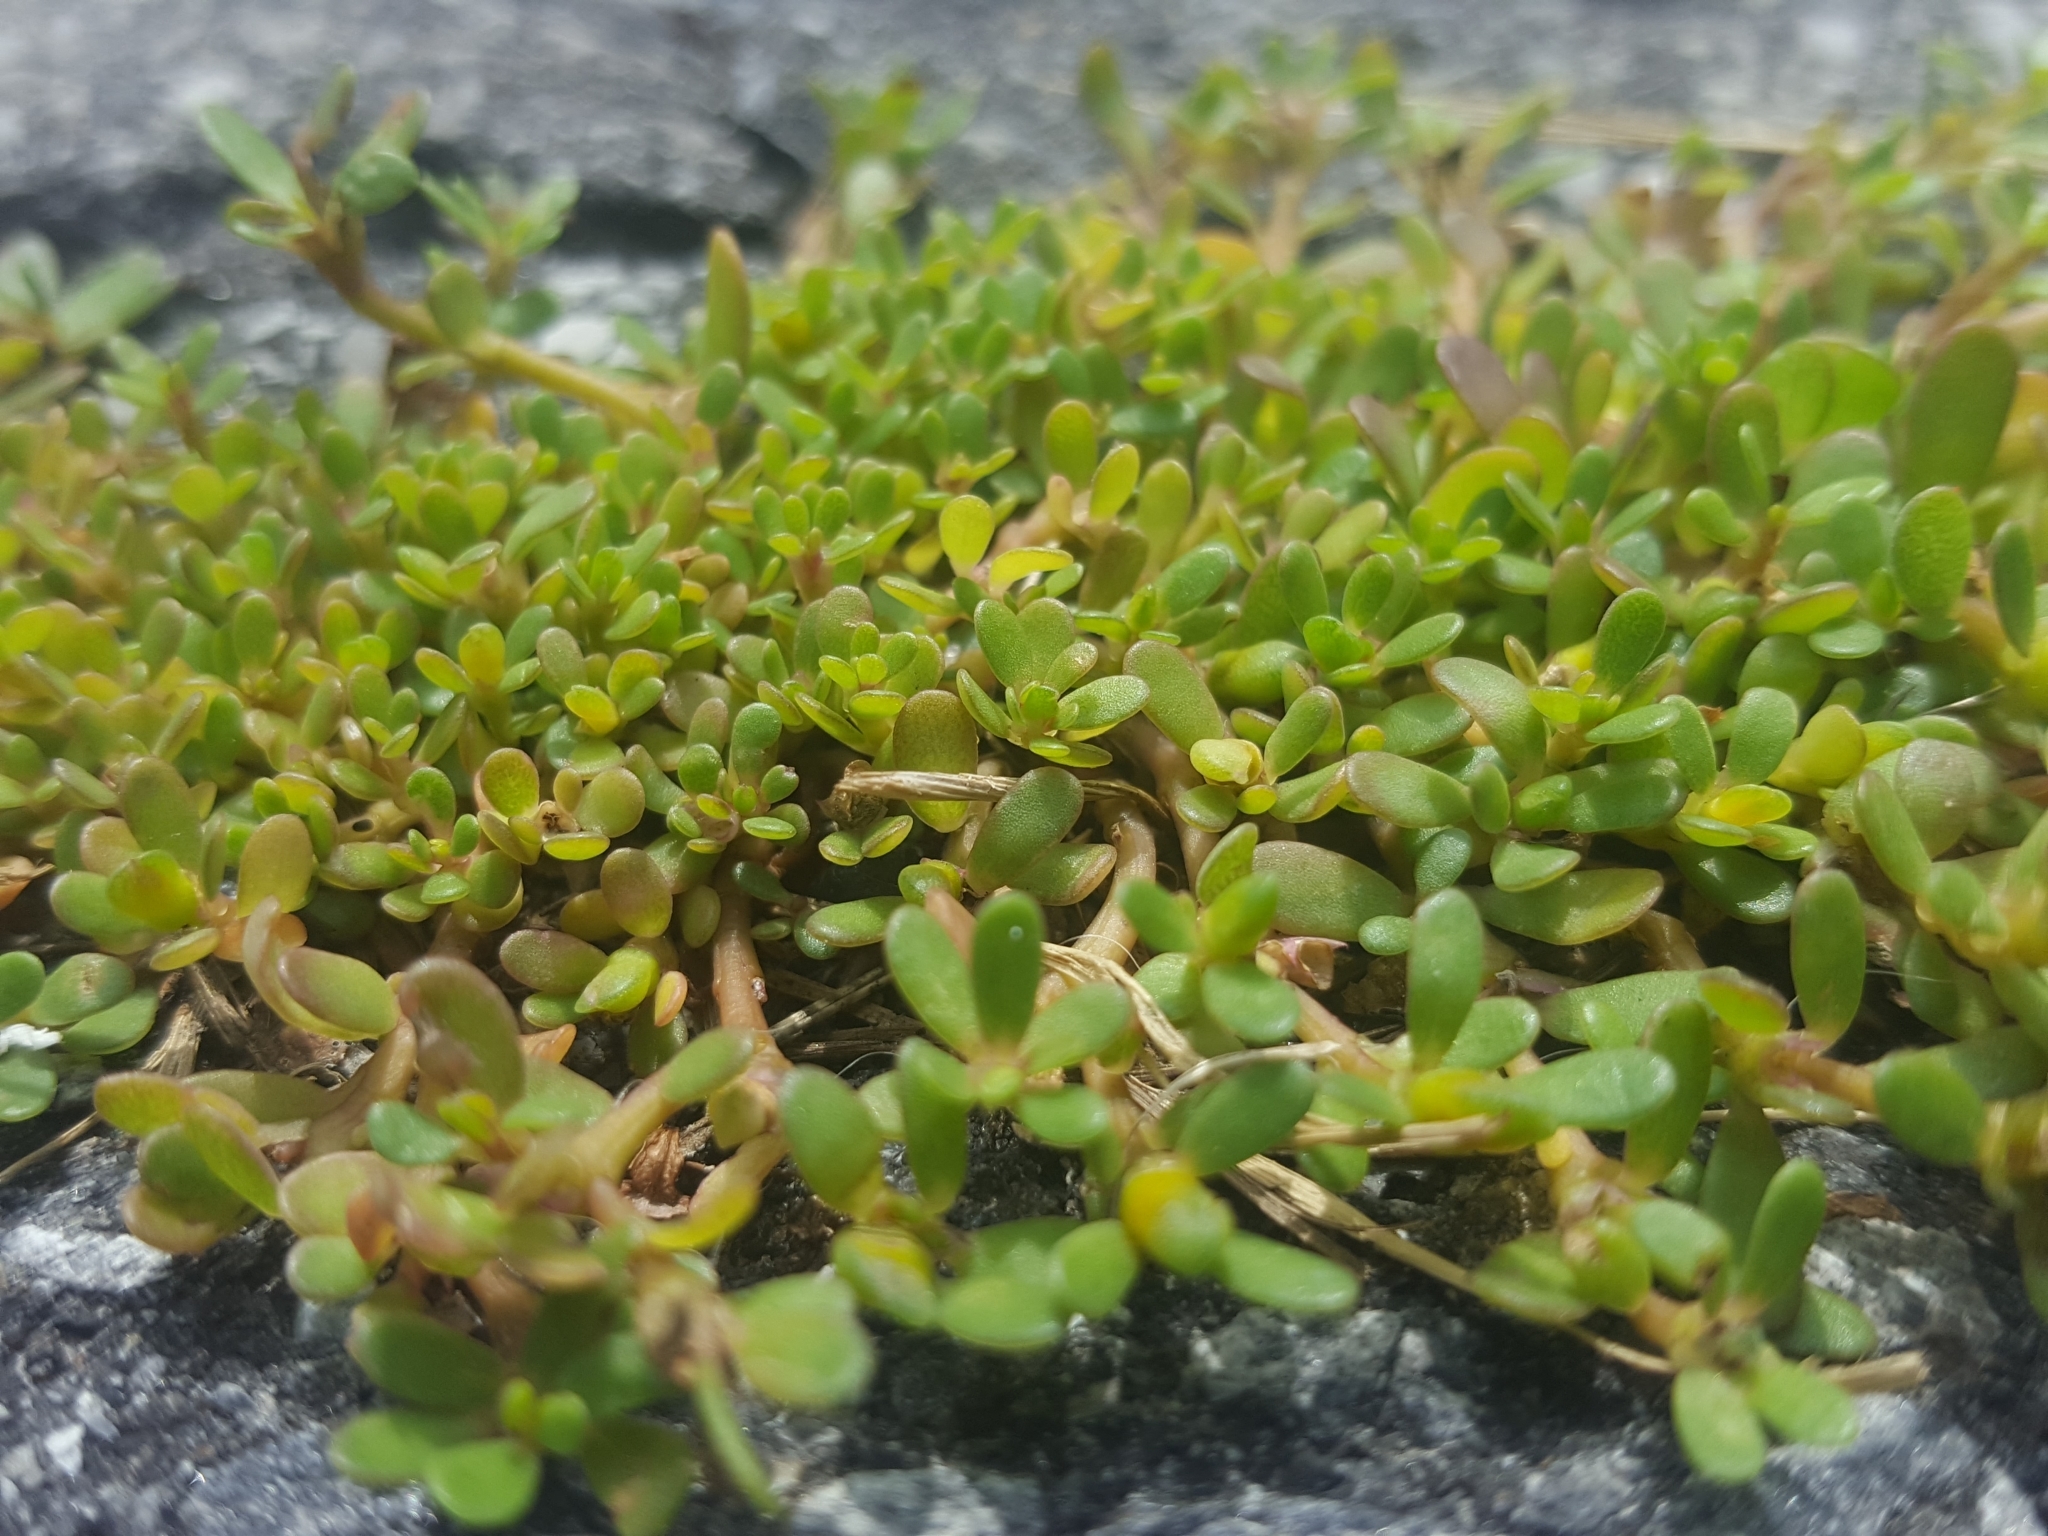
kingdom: Plantae
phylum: Tracheophyta
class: Magnoliopsida
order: Caryophyllales
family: Portulacaceae
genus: Portulaca
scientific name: Portulaca oleracea
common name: Common purslane
